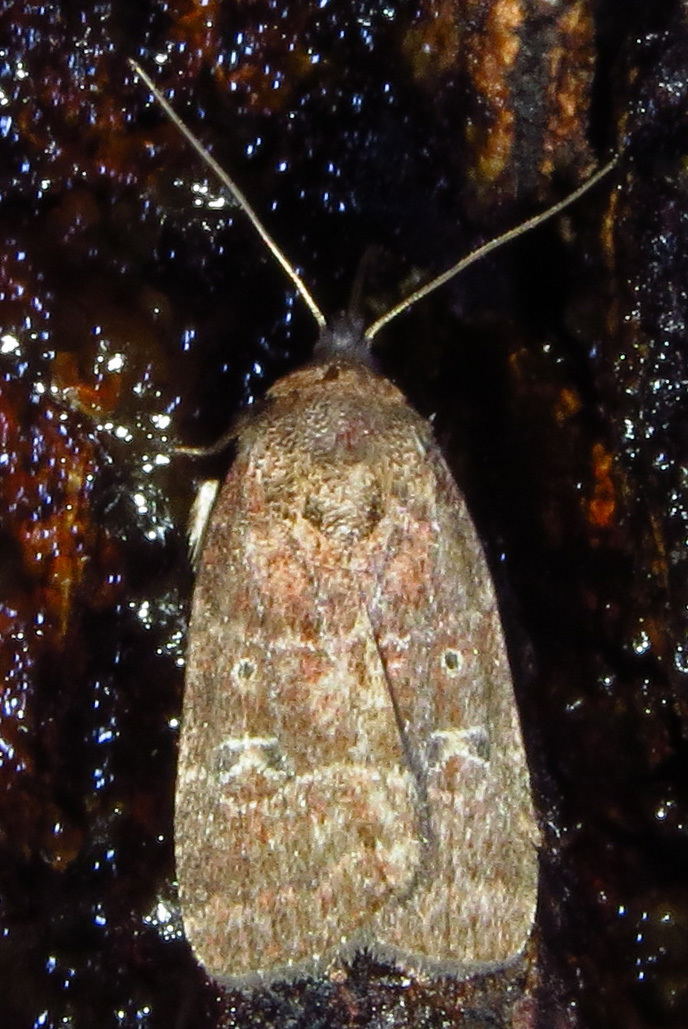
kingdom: Animalia
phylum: Arthropoda
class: Insecta
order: Lepidoptera
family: Noctuidae
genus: Elaphria
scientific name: Elaphria grata
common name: Grateful midget moth
